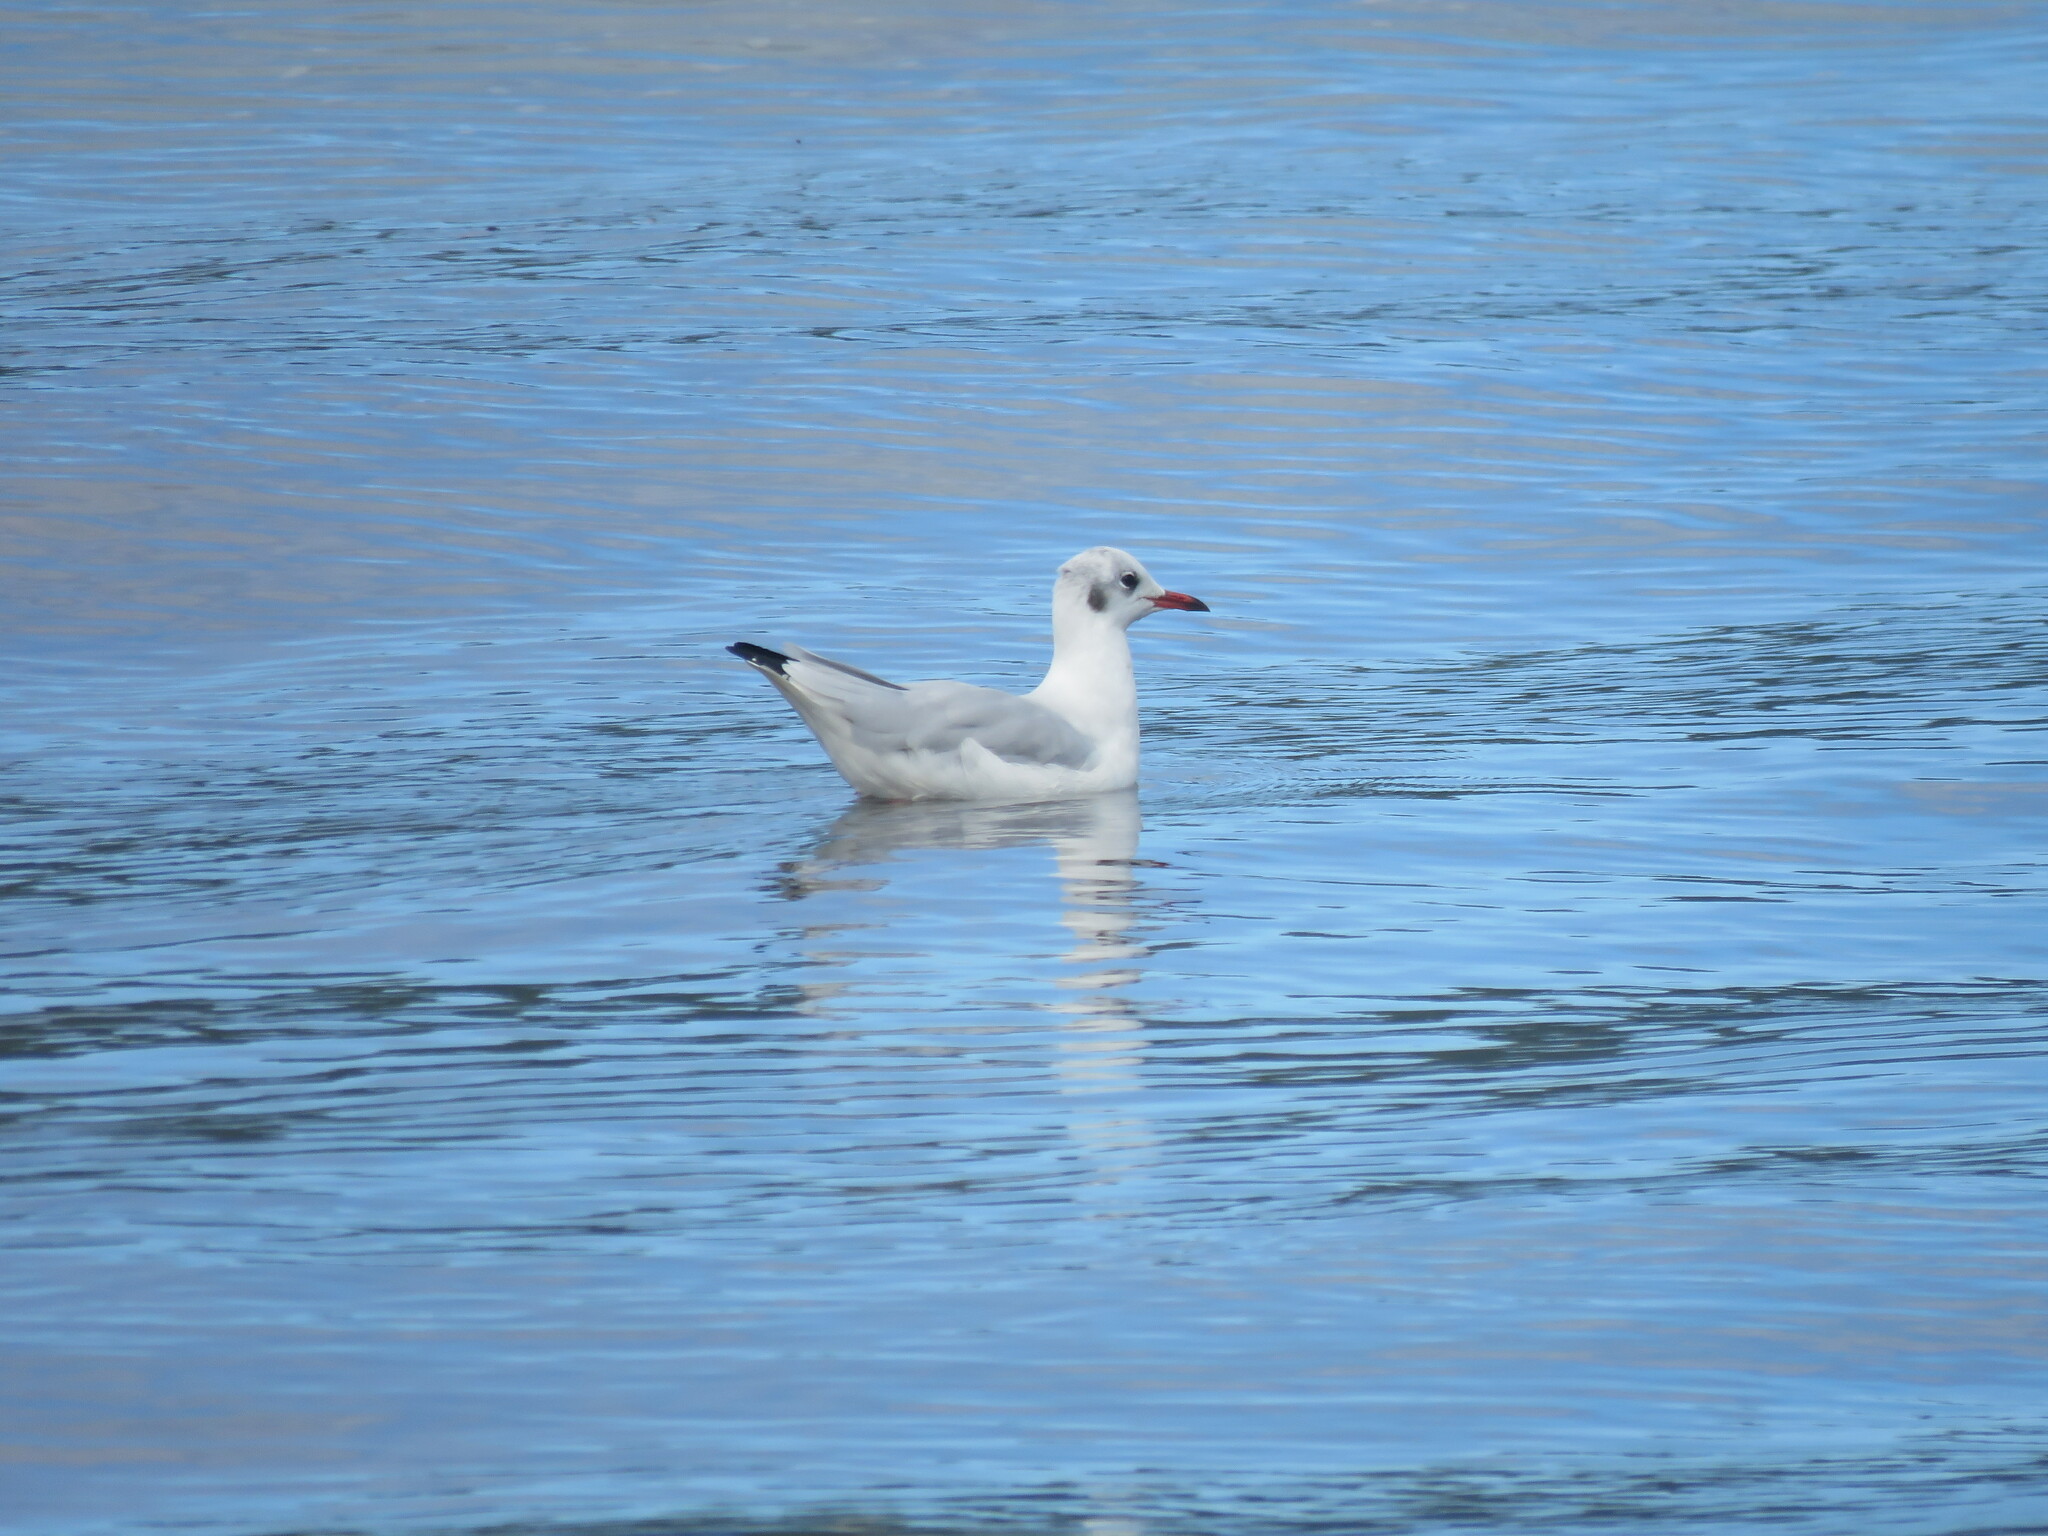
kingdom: Animalia
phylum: Chordata
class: Aves
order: Charadriiformes
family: Laridae
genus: Chroicocephalus
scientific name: Chroicocephalus ridibundus
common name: Black-headed gull
